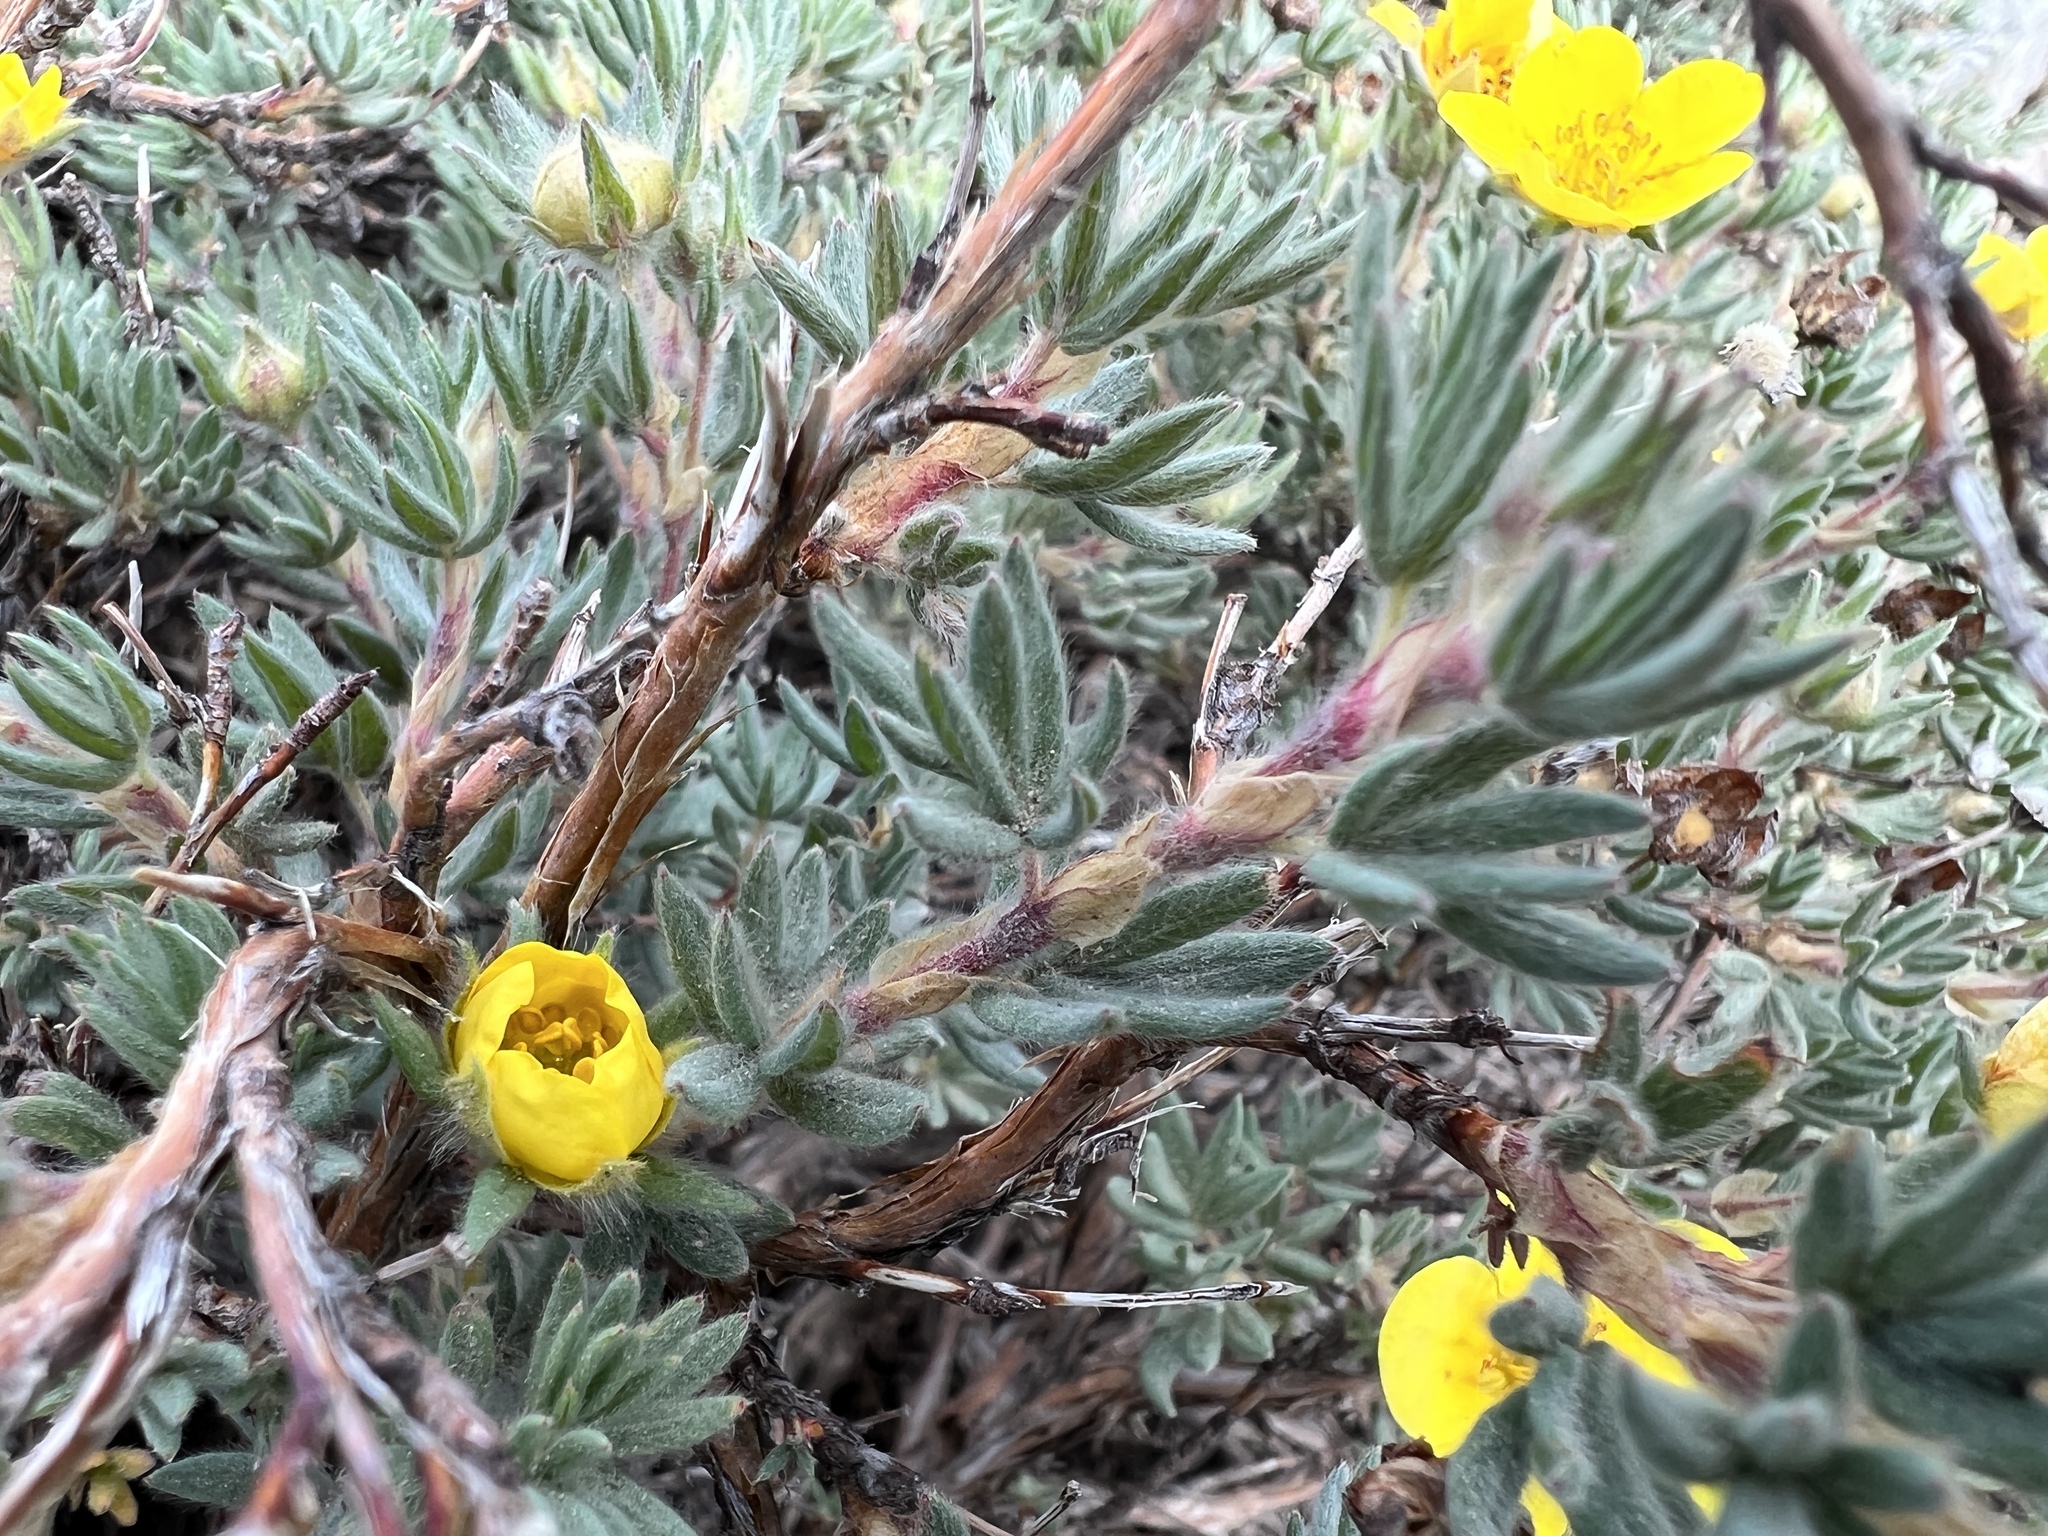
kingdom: Plantae
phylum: Tracheophyta
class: Magnoliopsida
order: Rosales
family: Rosaceae
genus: Dasiphora
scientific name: Dasiphora fruticosa
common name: Shrubby cinquefoil
